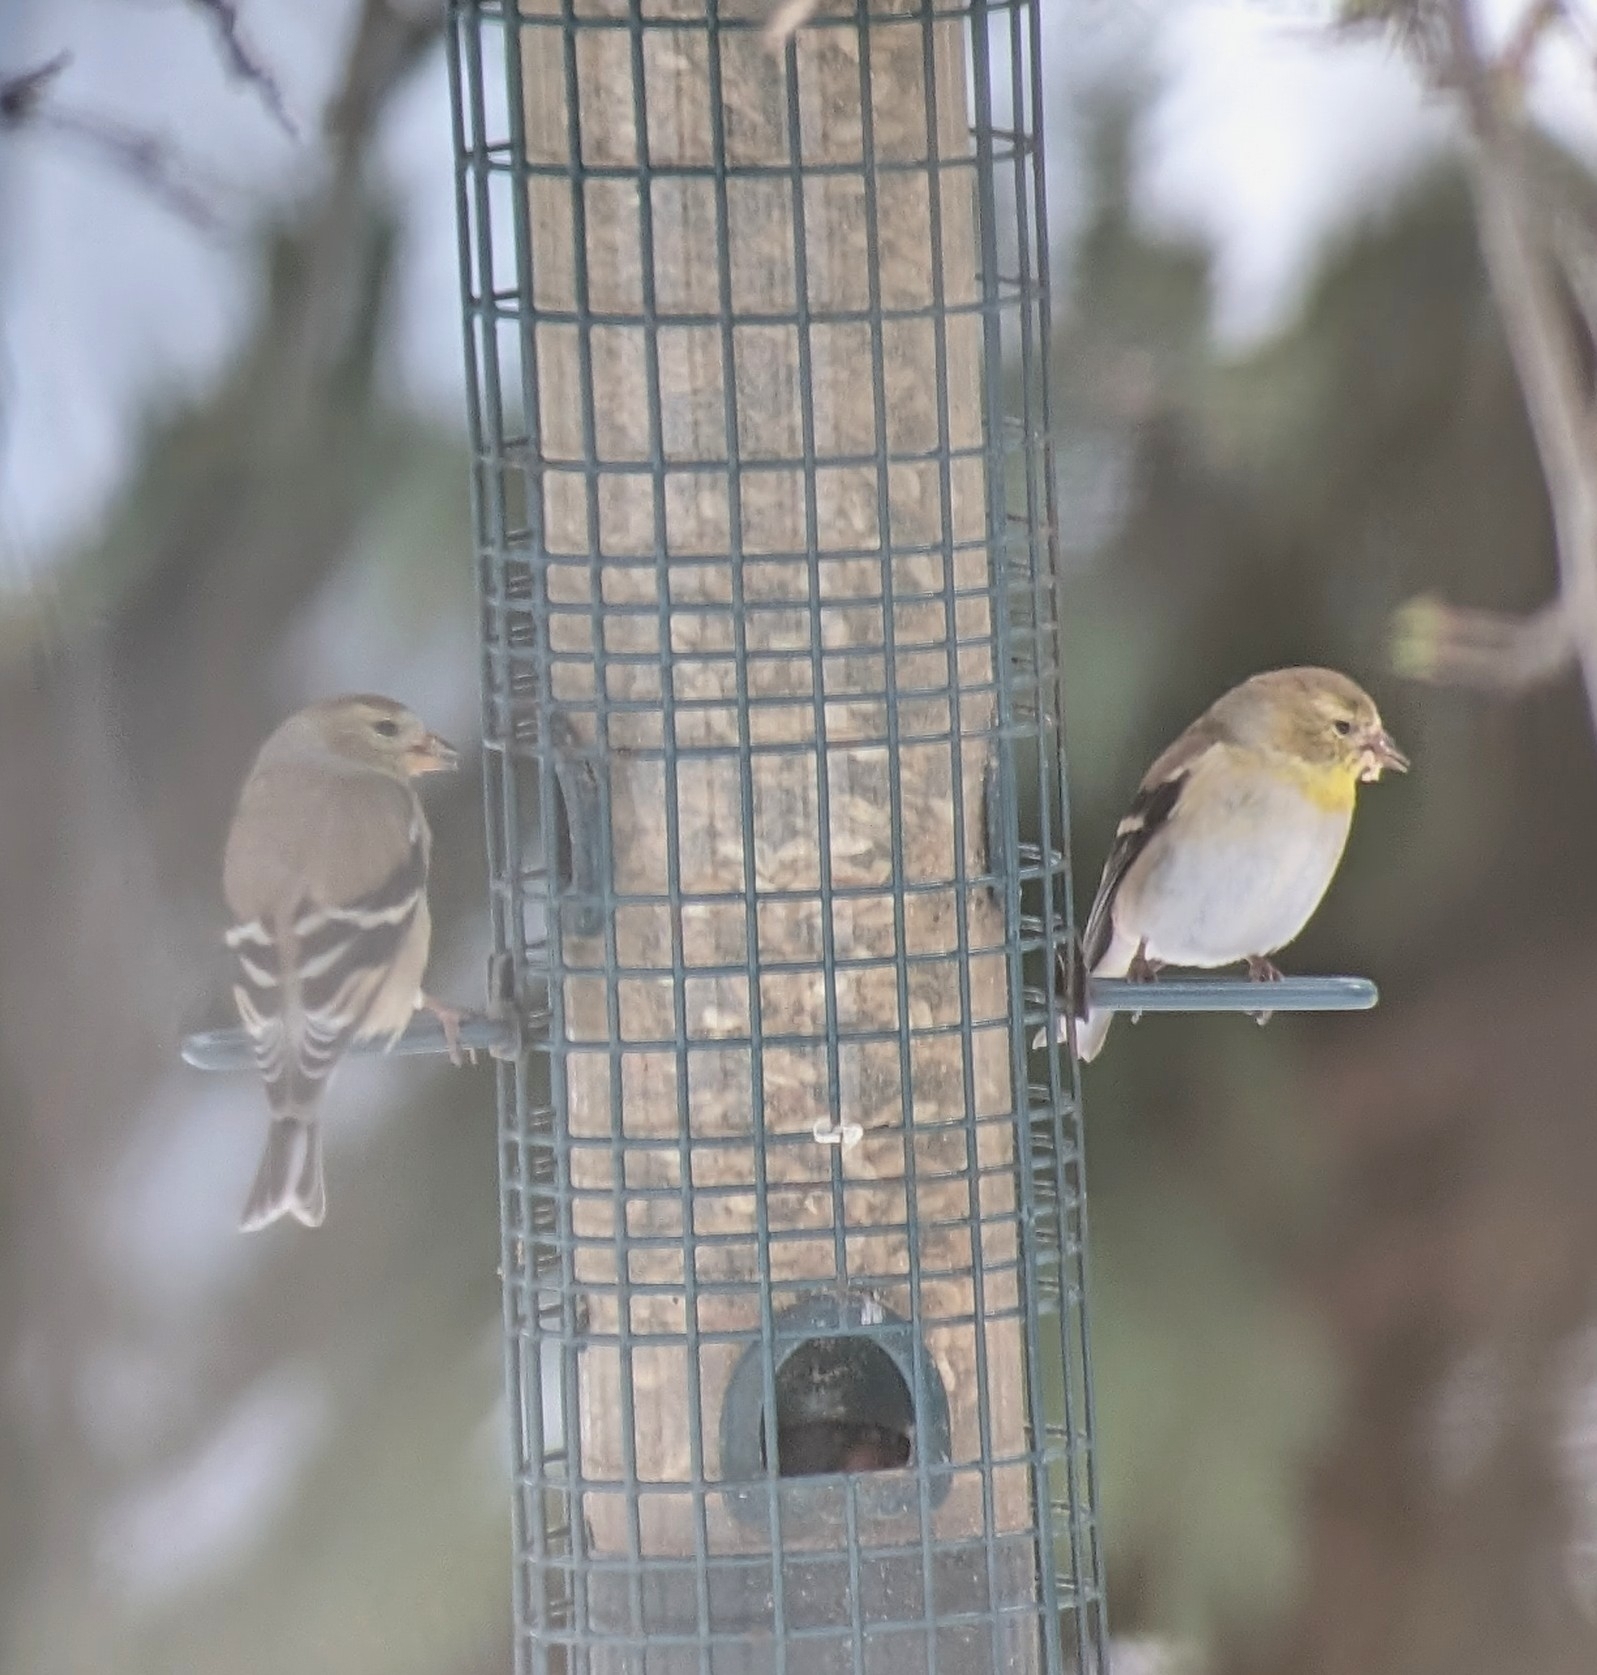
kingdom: Animalia
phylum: Chordata
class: Aves
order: Passeriformes
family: Fringillidae
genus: Spinus
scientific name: Spinus tristis
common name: American goldfinch
